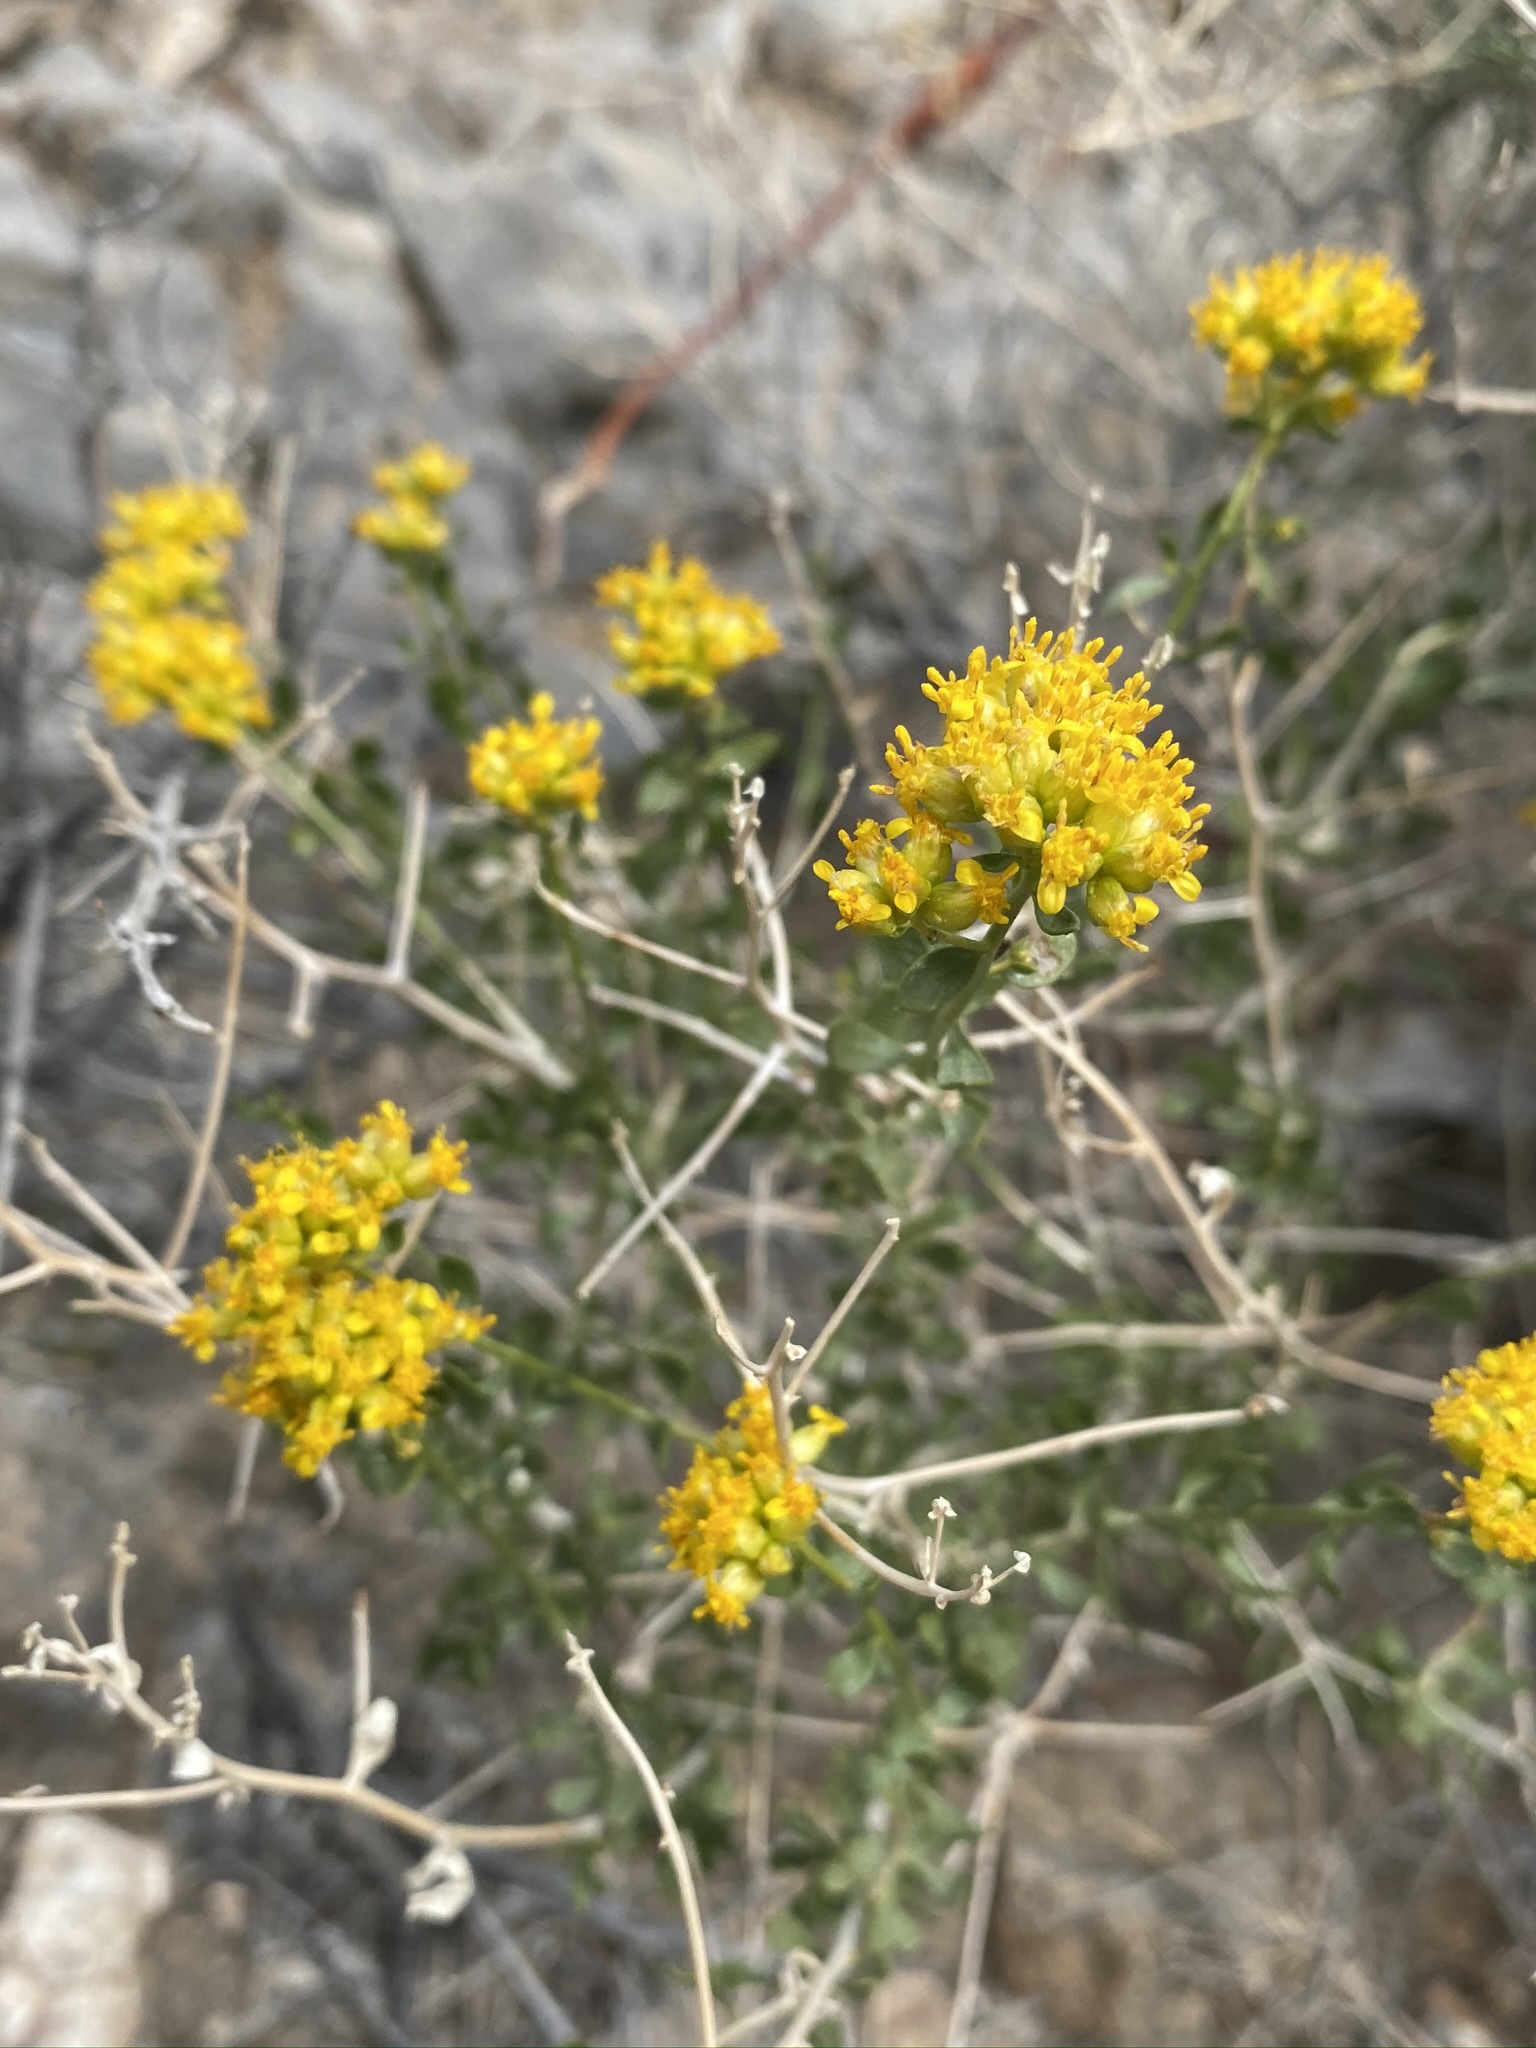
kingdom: Plantae
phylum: Tracheophyta
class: Magnoliopsida
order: Asterales
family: Asteraceae
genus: Amphipappus
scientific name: Amphipappus fremontii
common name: Fremont's chaffbush
